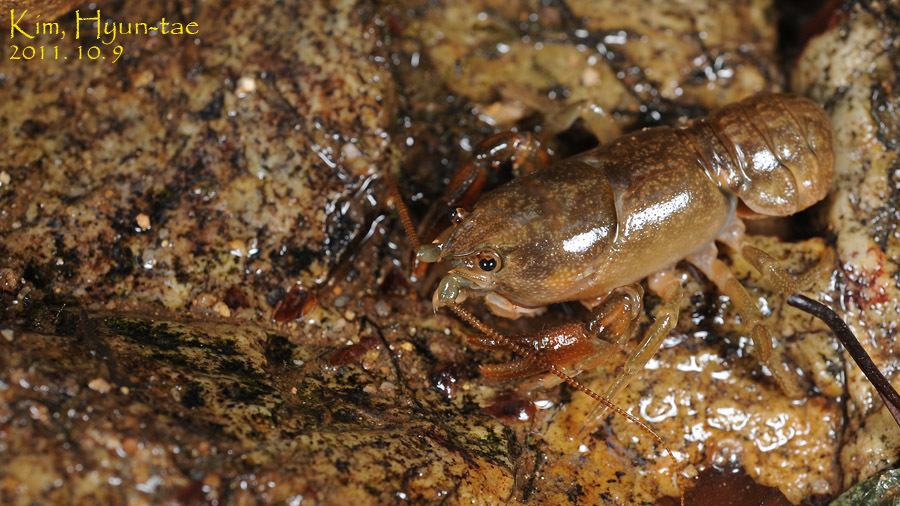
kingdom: Animalia
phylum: Arthropoda
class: Malacostraca
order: Decapoda
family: Cambaroididae
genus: Cambaroides
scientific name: Cambaroides similis
